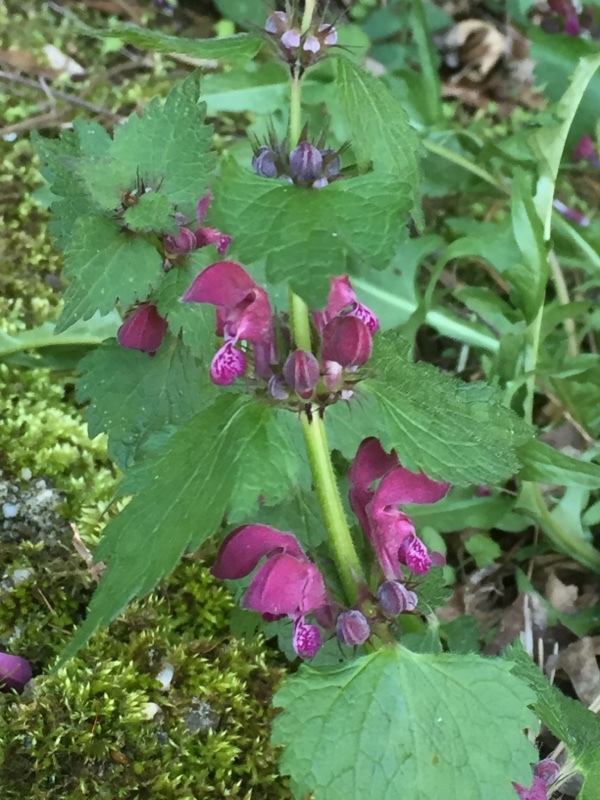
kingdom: Plantae
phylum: Tracheophyta
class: Magnoliopsida
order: Lamiales
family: Lamiaceae
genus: Lamium
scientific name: Lamium maculatum
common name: Spotted dead-nettle
